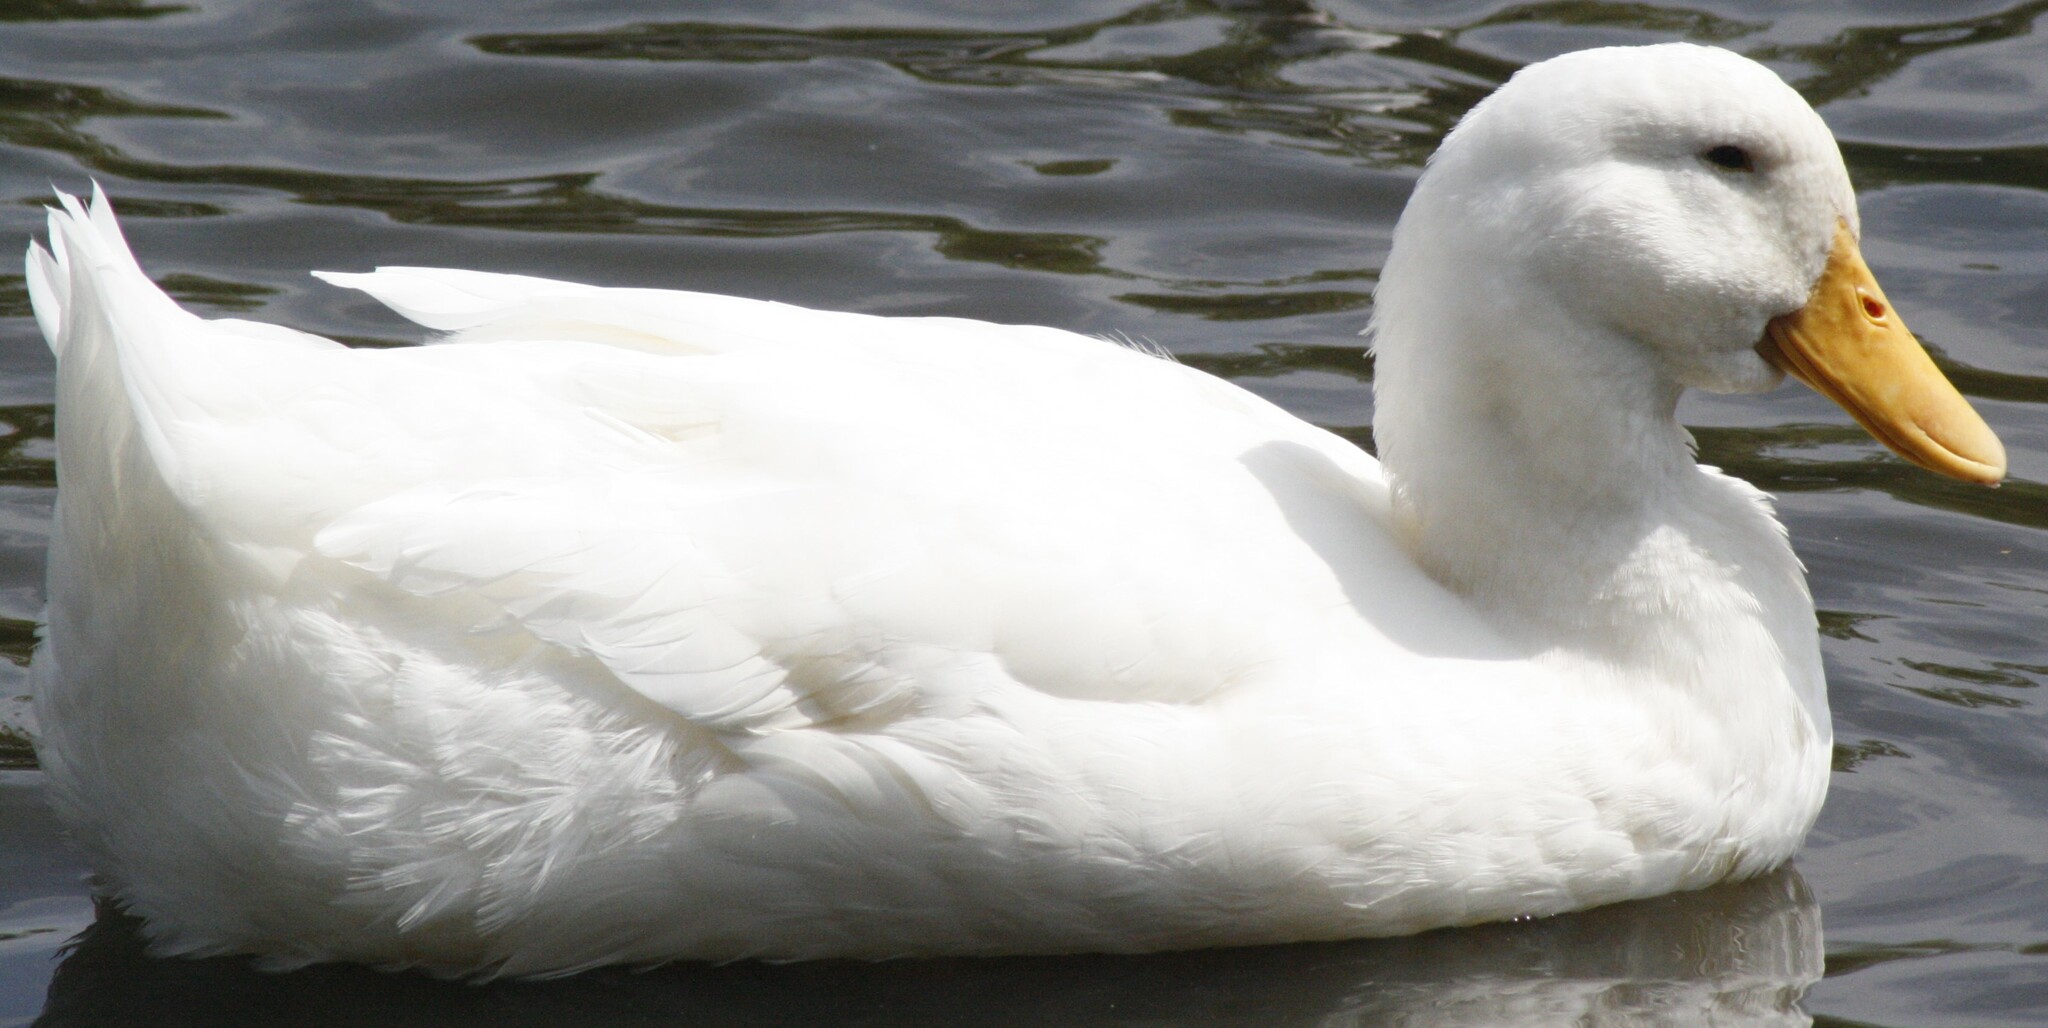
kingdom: Animalia
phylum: Chordata
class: Aves
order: Anseriformes
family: Anatidae
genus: Anas
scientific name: Anas platyrhynchos
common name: Mallard
